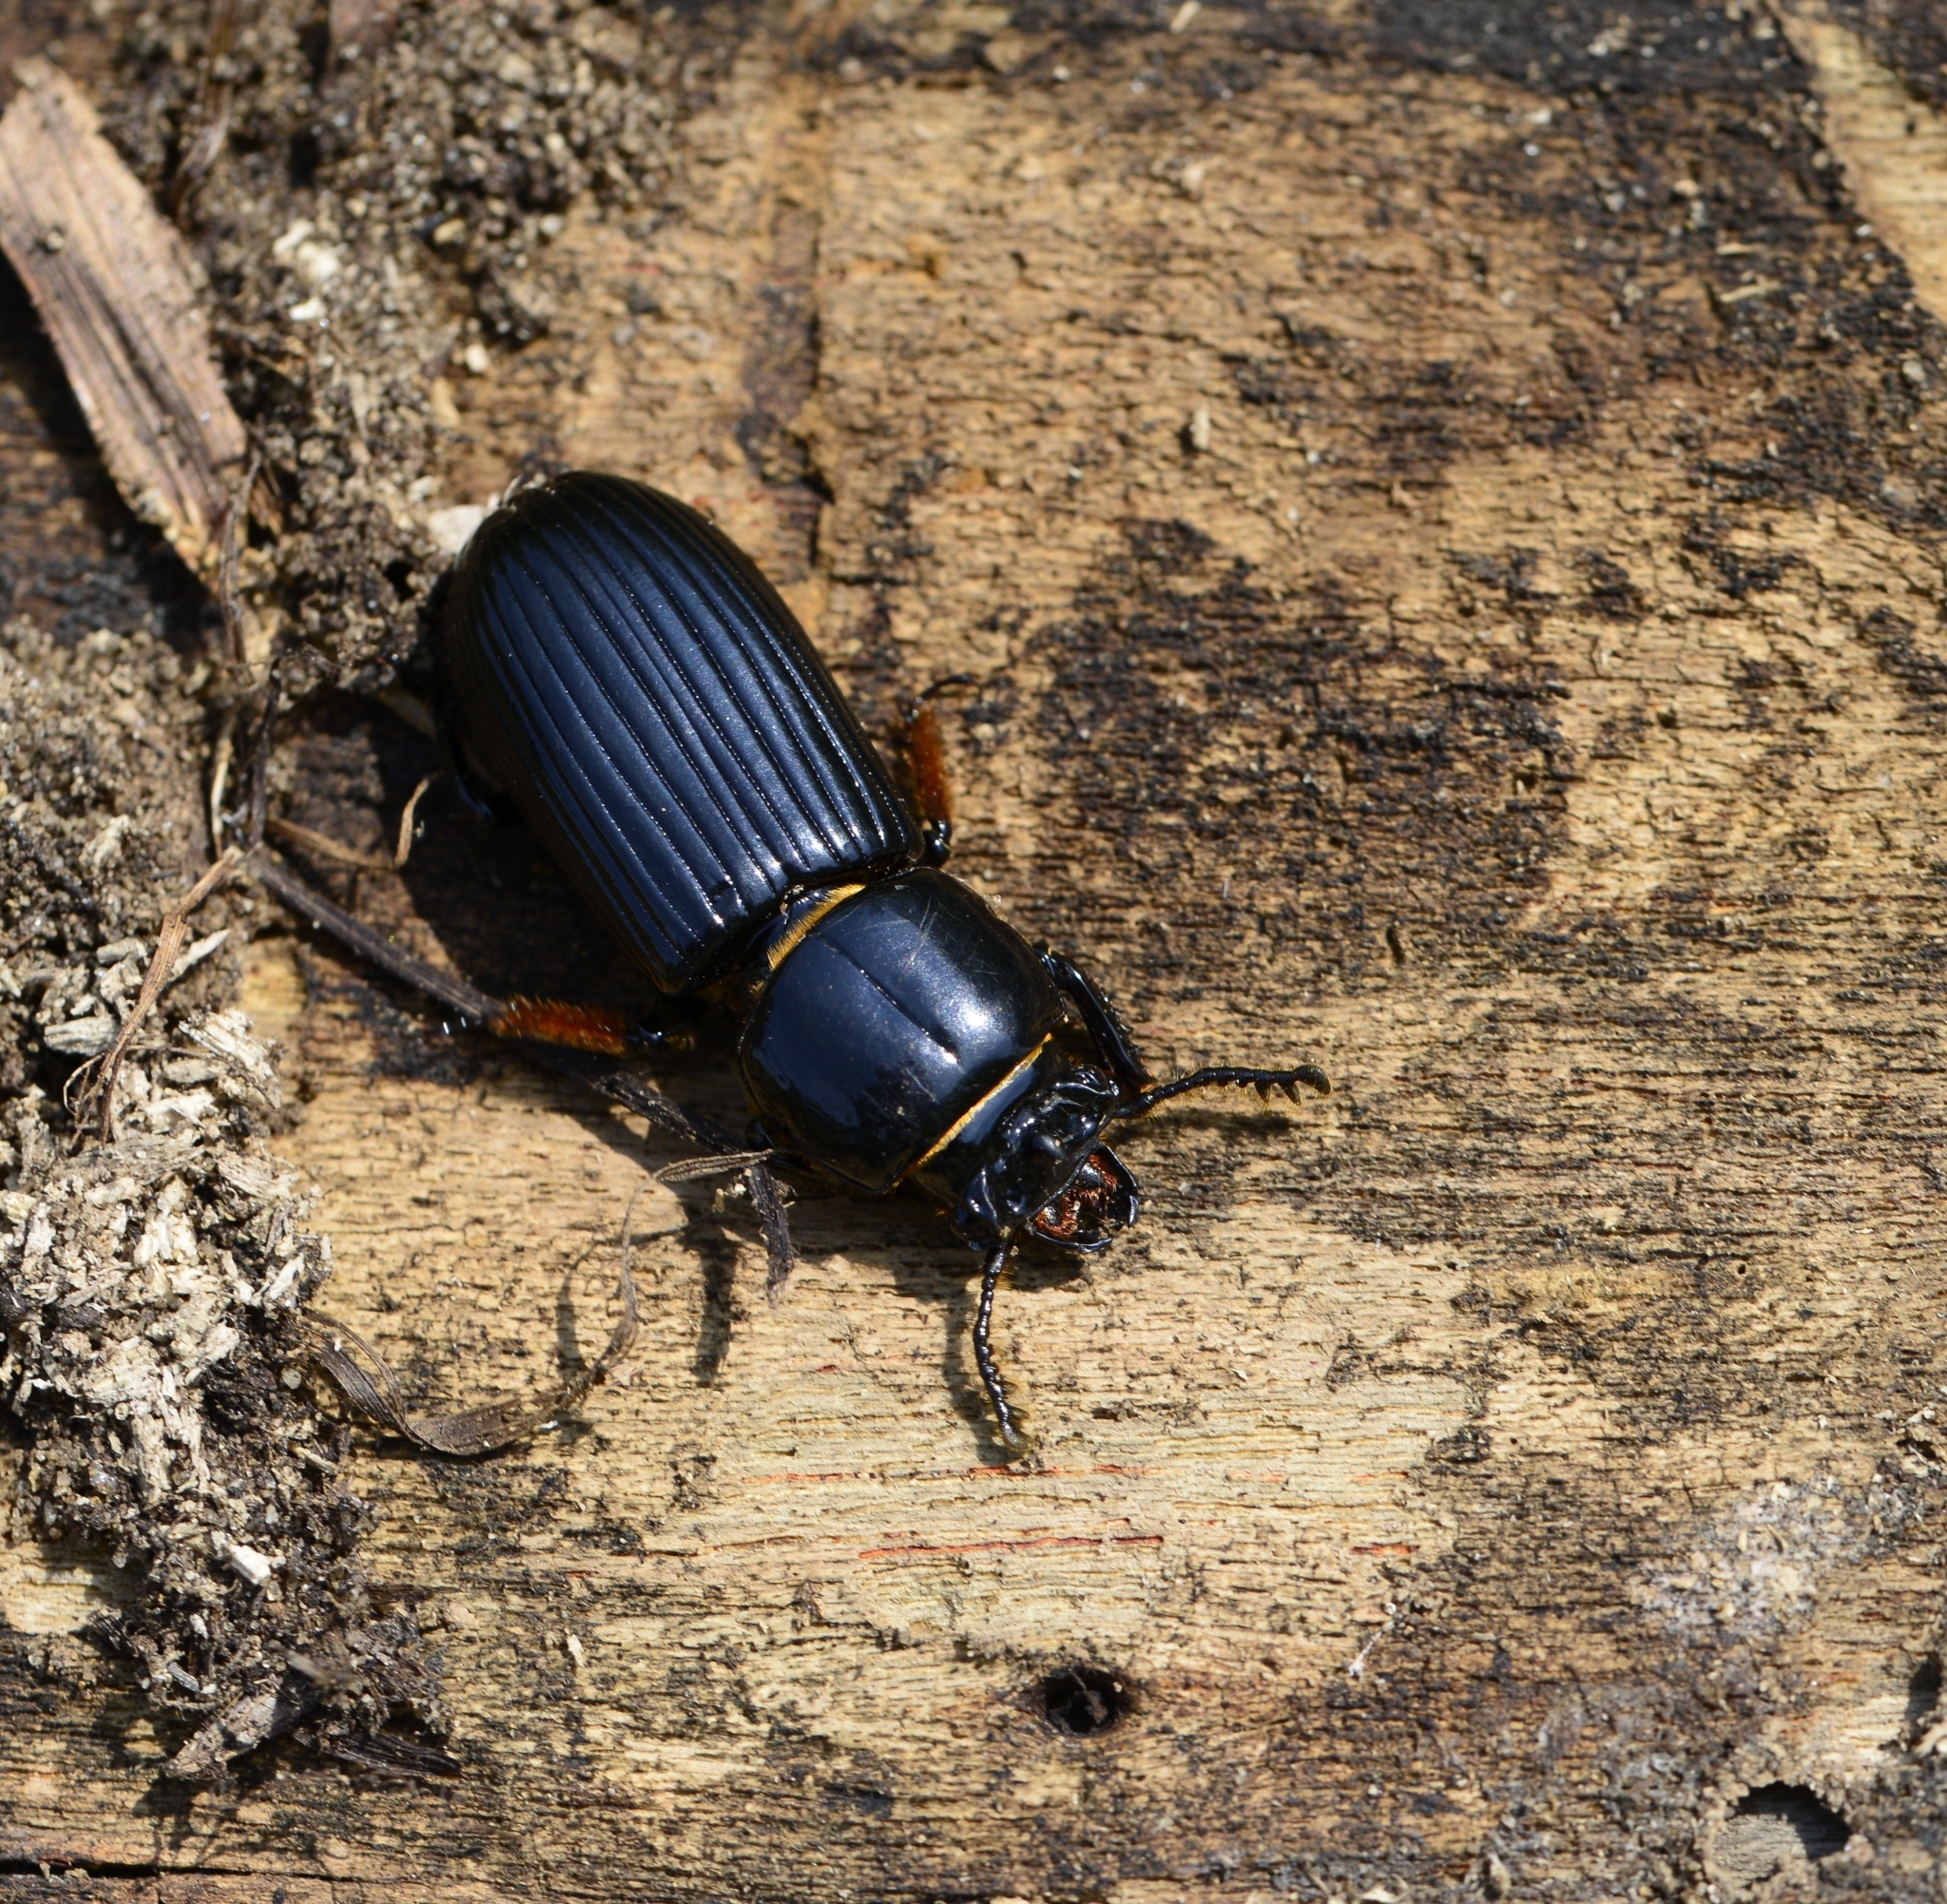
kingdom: Animalia
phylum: Arthropoda
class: Insecta
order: Coleoptera
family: Passalidae
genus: Odontotaenius
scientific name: Odontotaenius disjunctus
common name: Patent leather beetle
